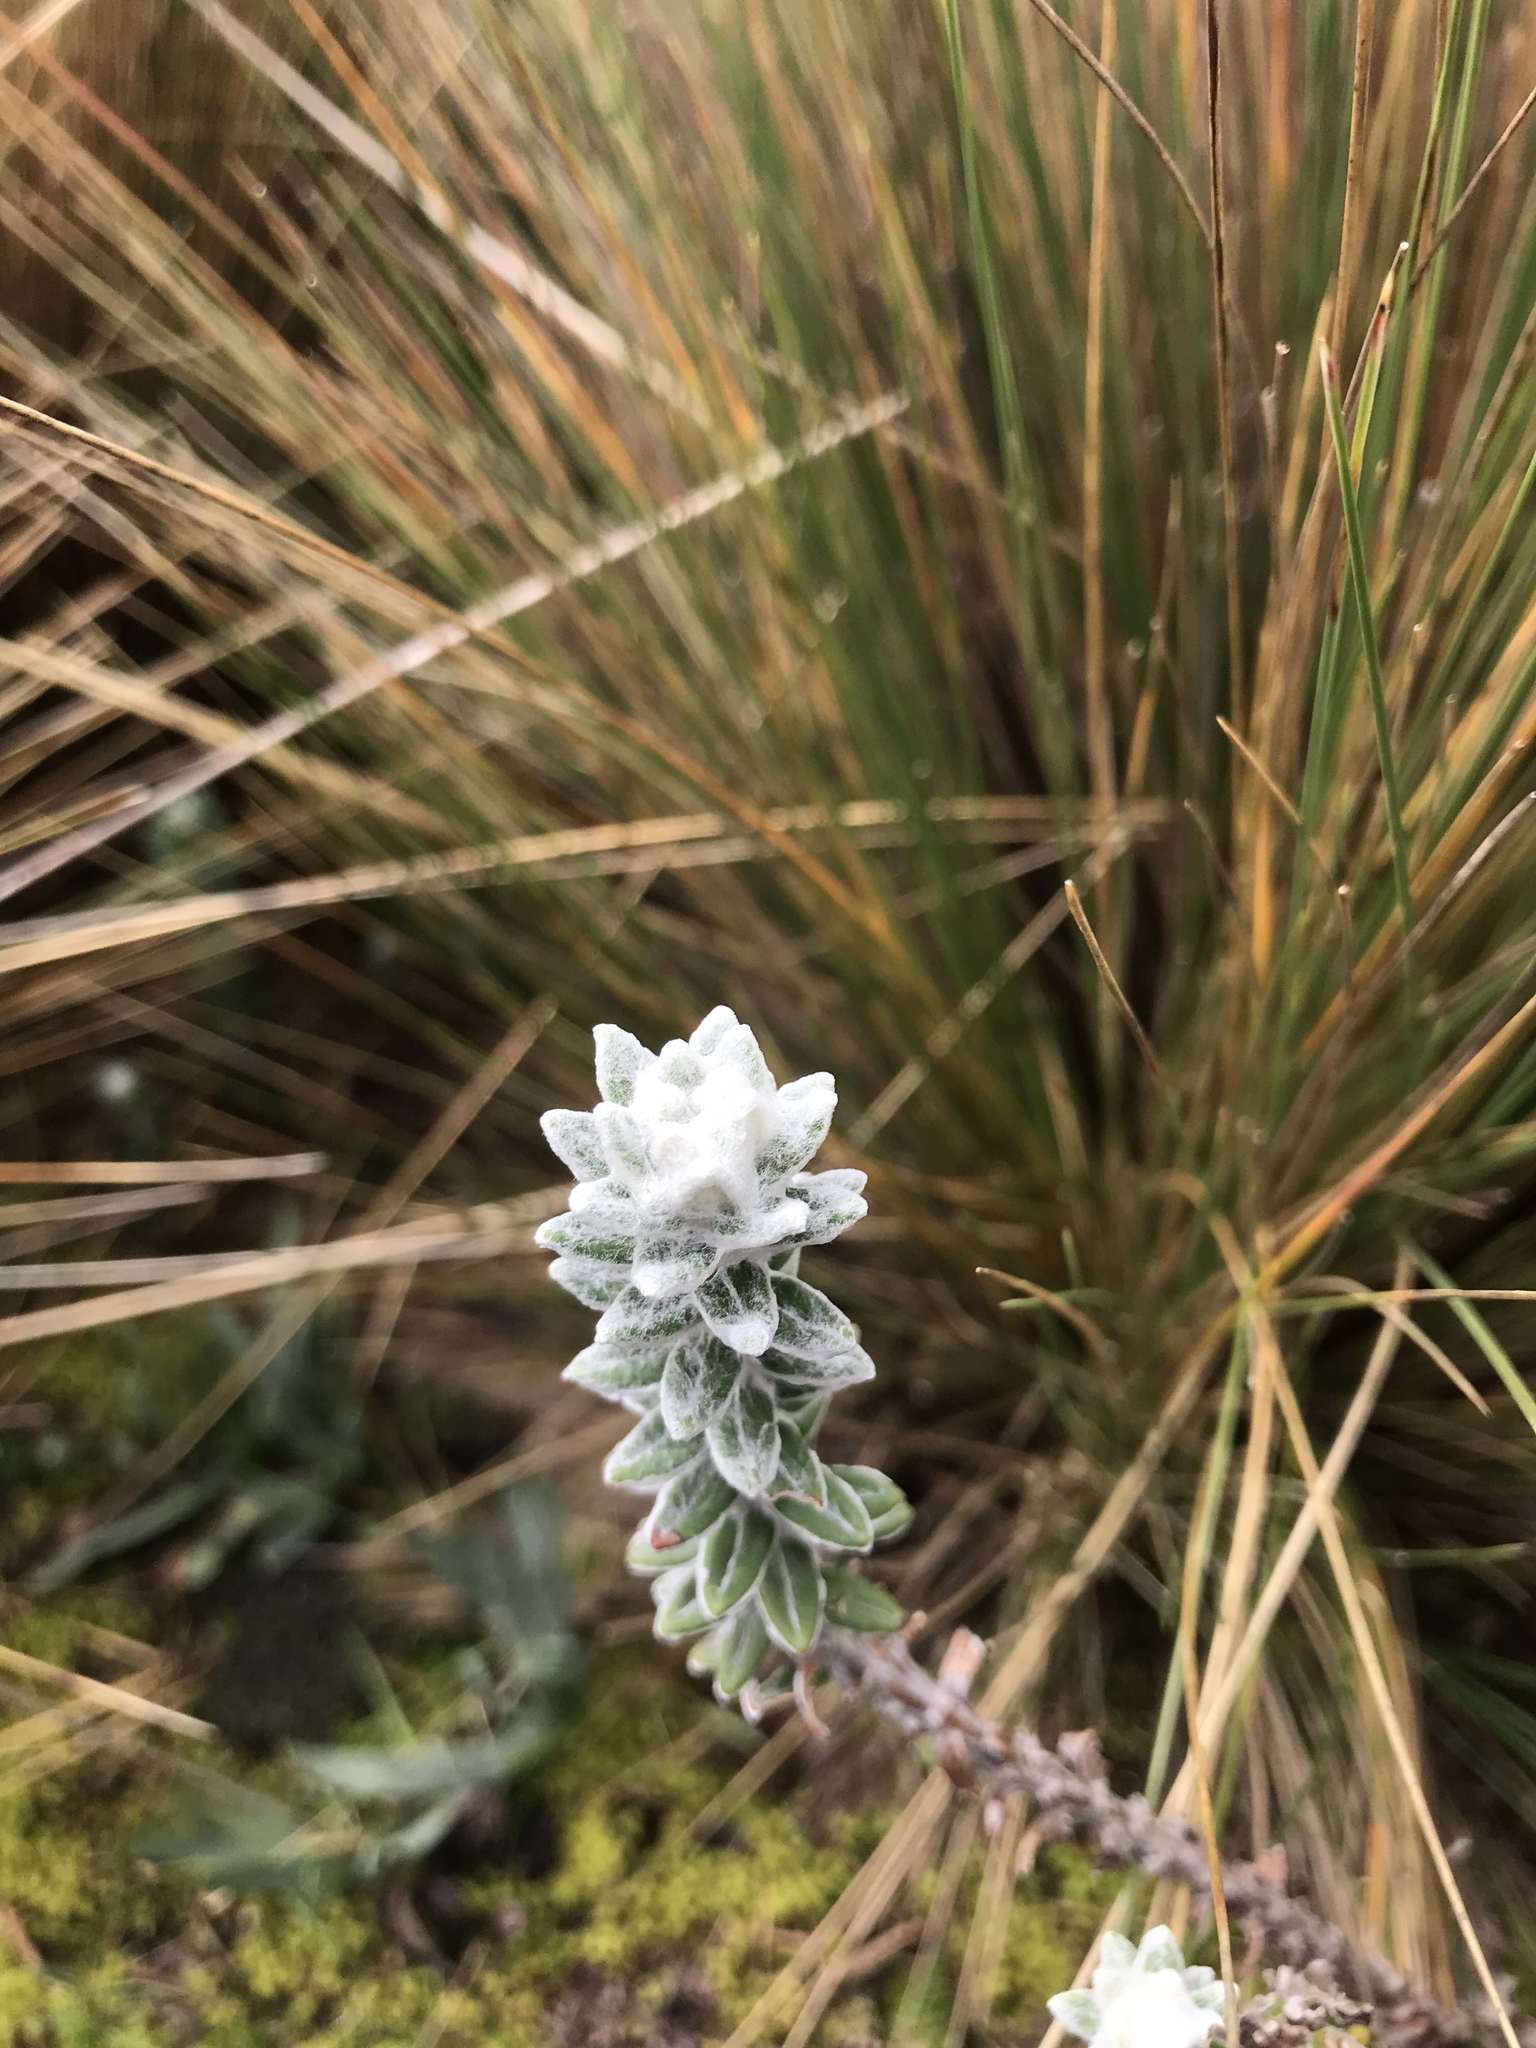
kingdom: Plantae
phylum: Tracheophyta
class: Magnoliopsida
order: Asterales
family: Asteraceae
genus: Lasiocephalus
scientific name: Lasiocephalus ovatus
